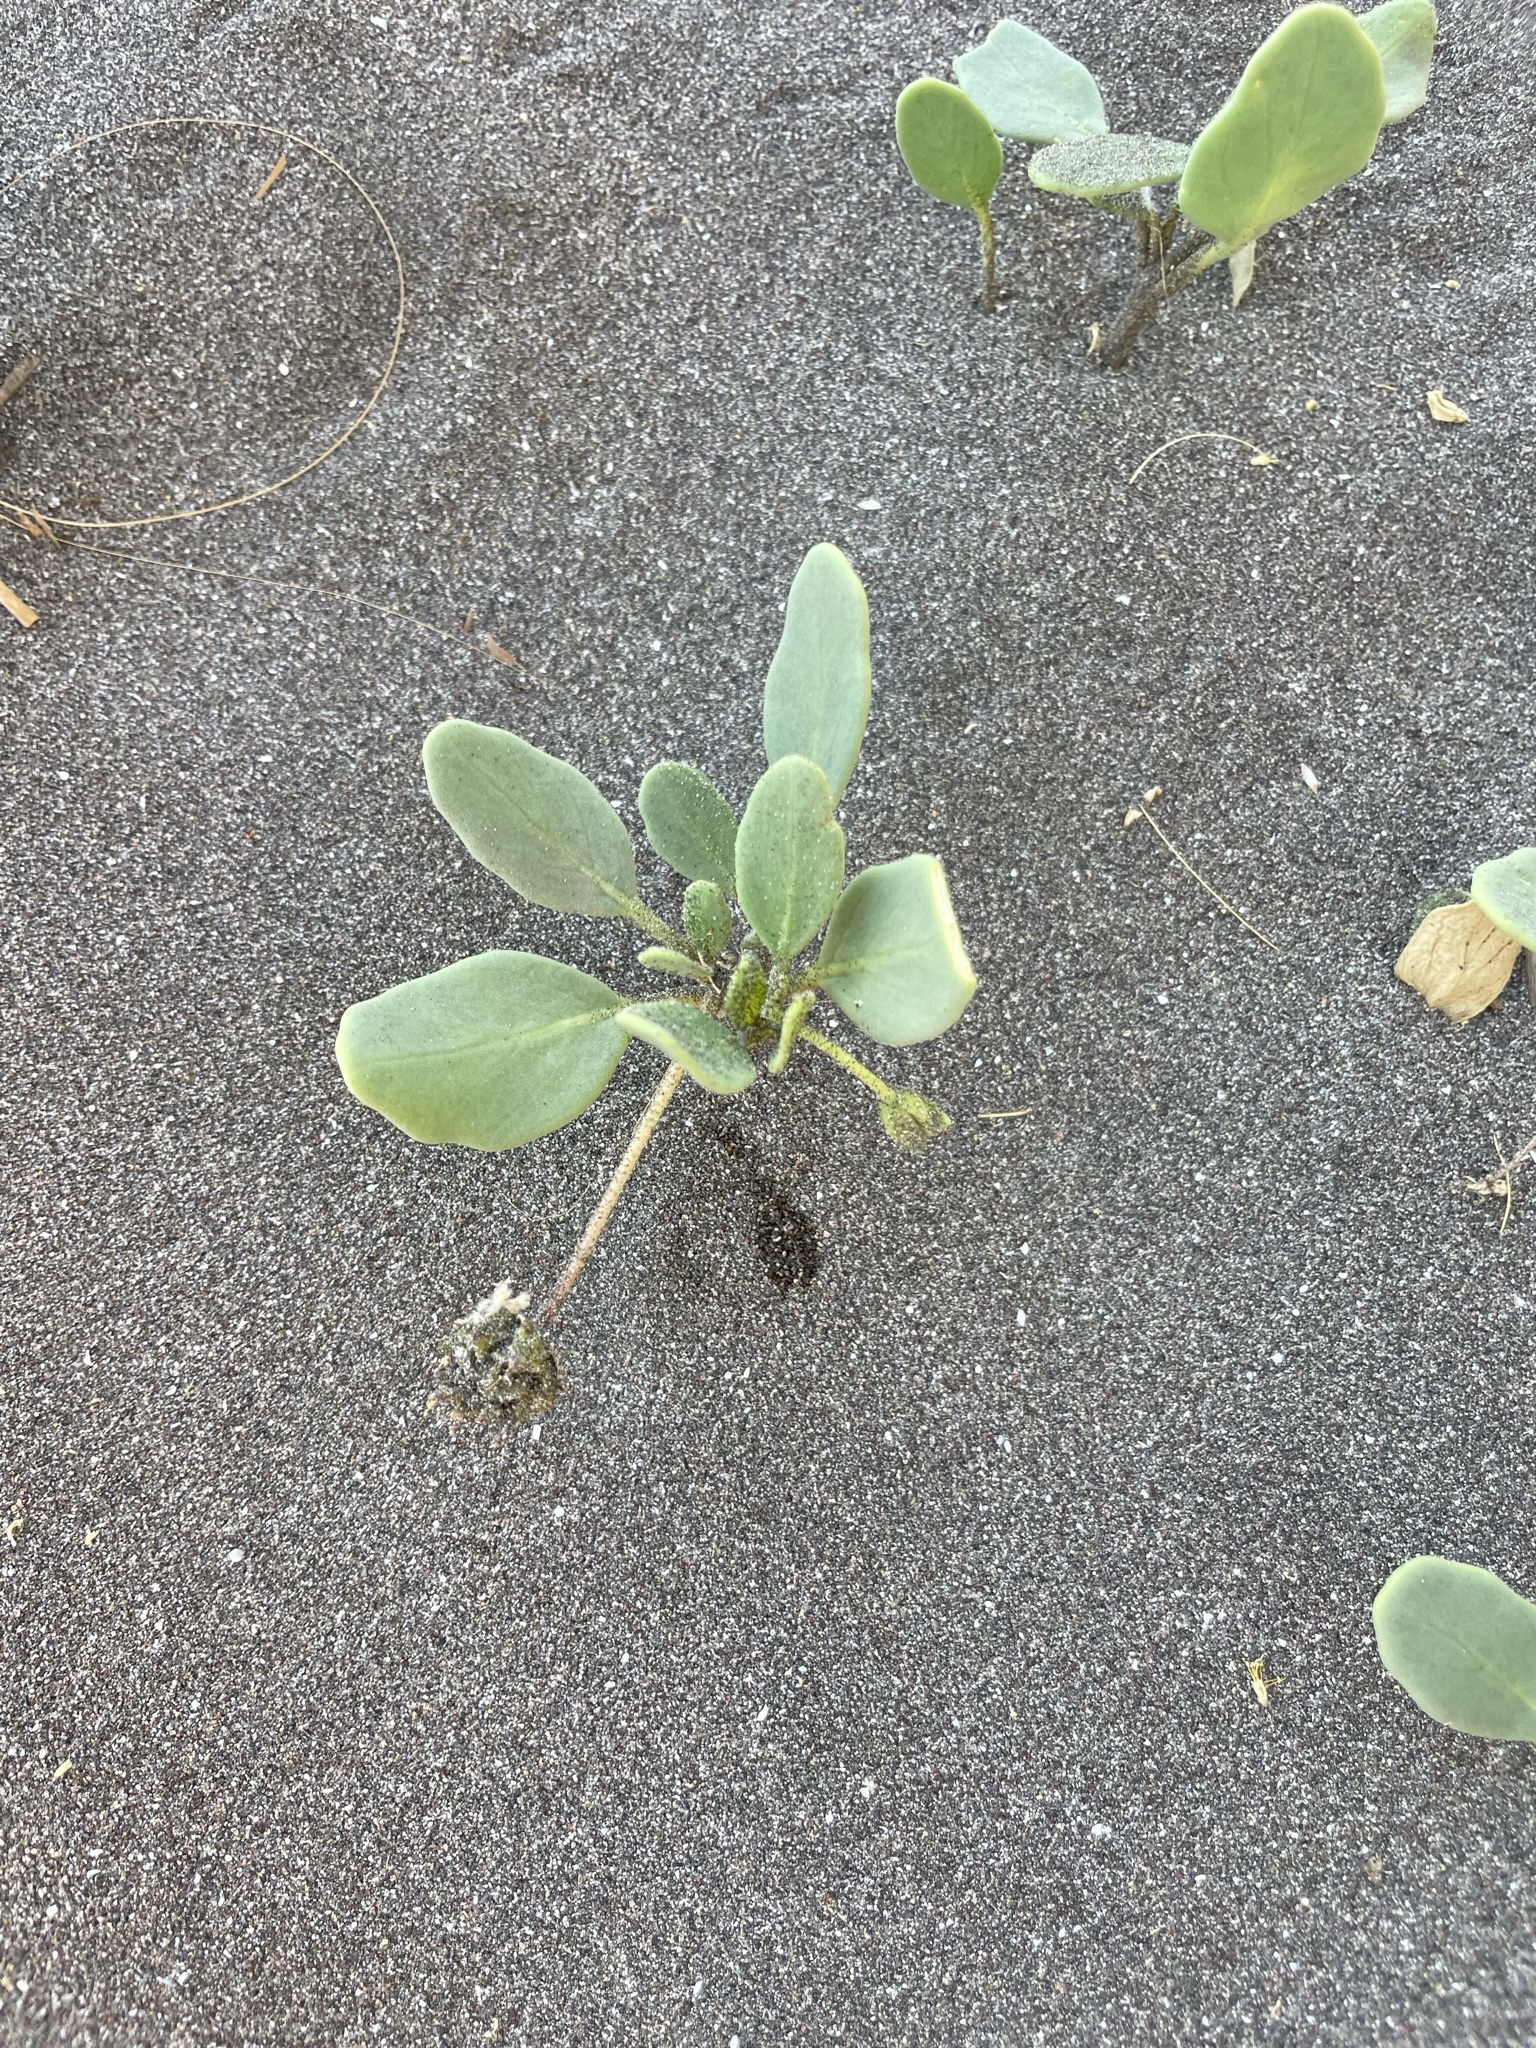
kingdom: Plantae
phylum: Tracheophyta
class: Magnoliopsida
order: Caryophyllales
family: Nyctaginaceae
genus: Abronia
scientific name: Abronia maritima
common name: Red sand-verbena
